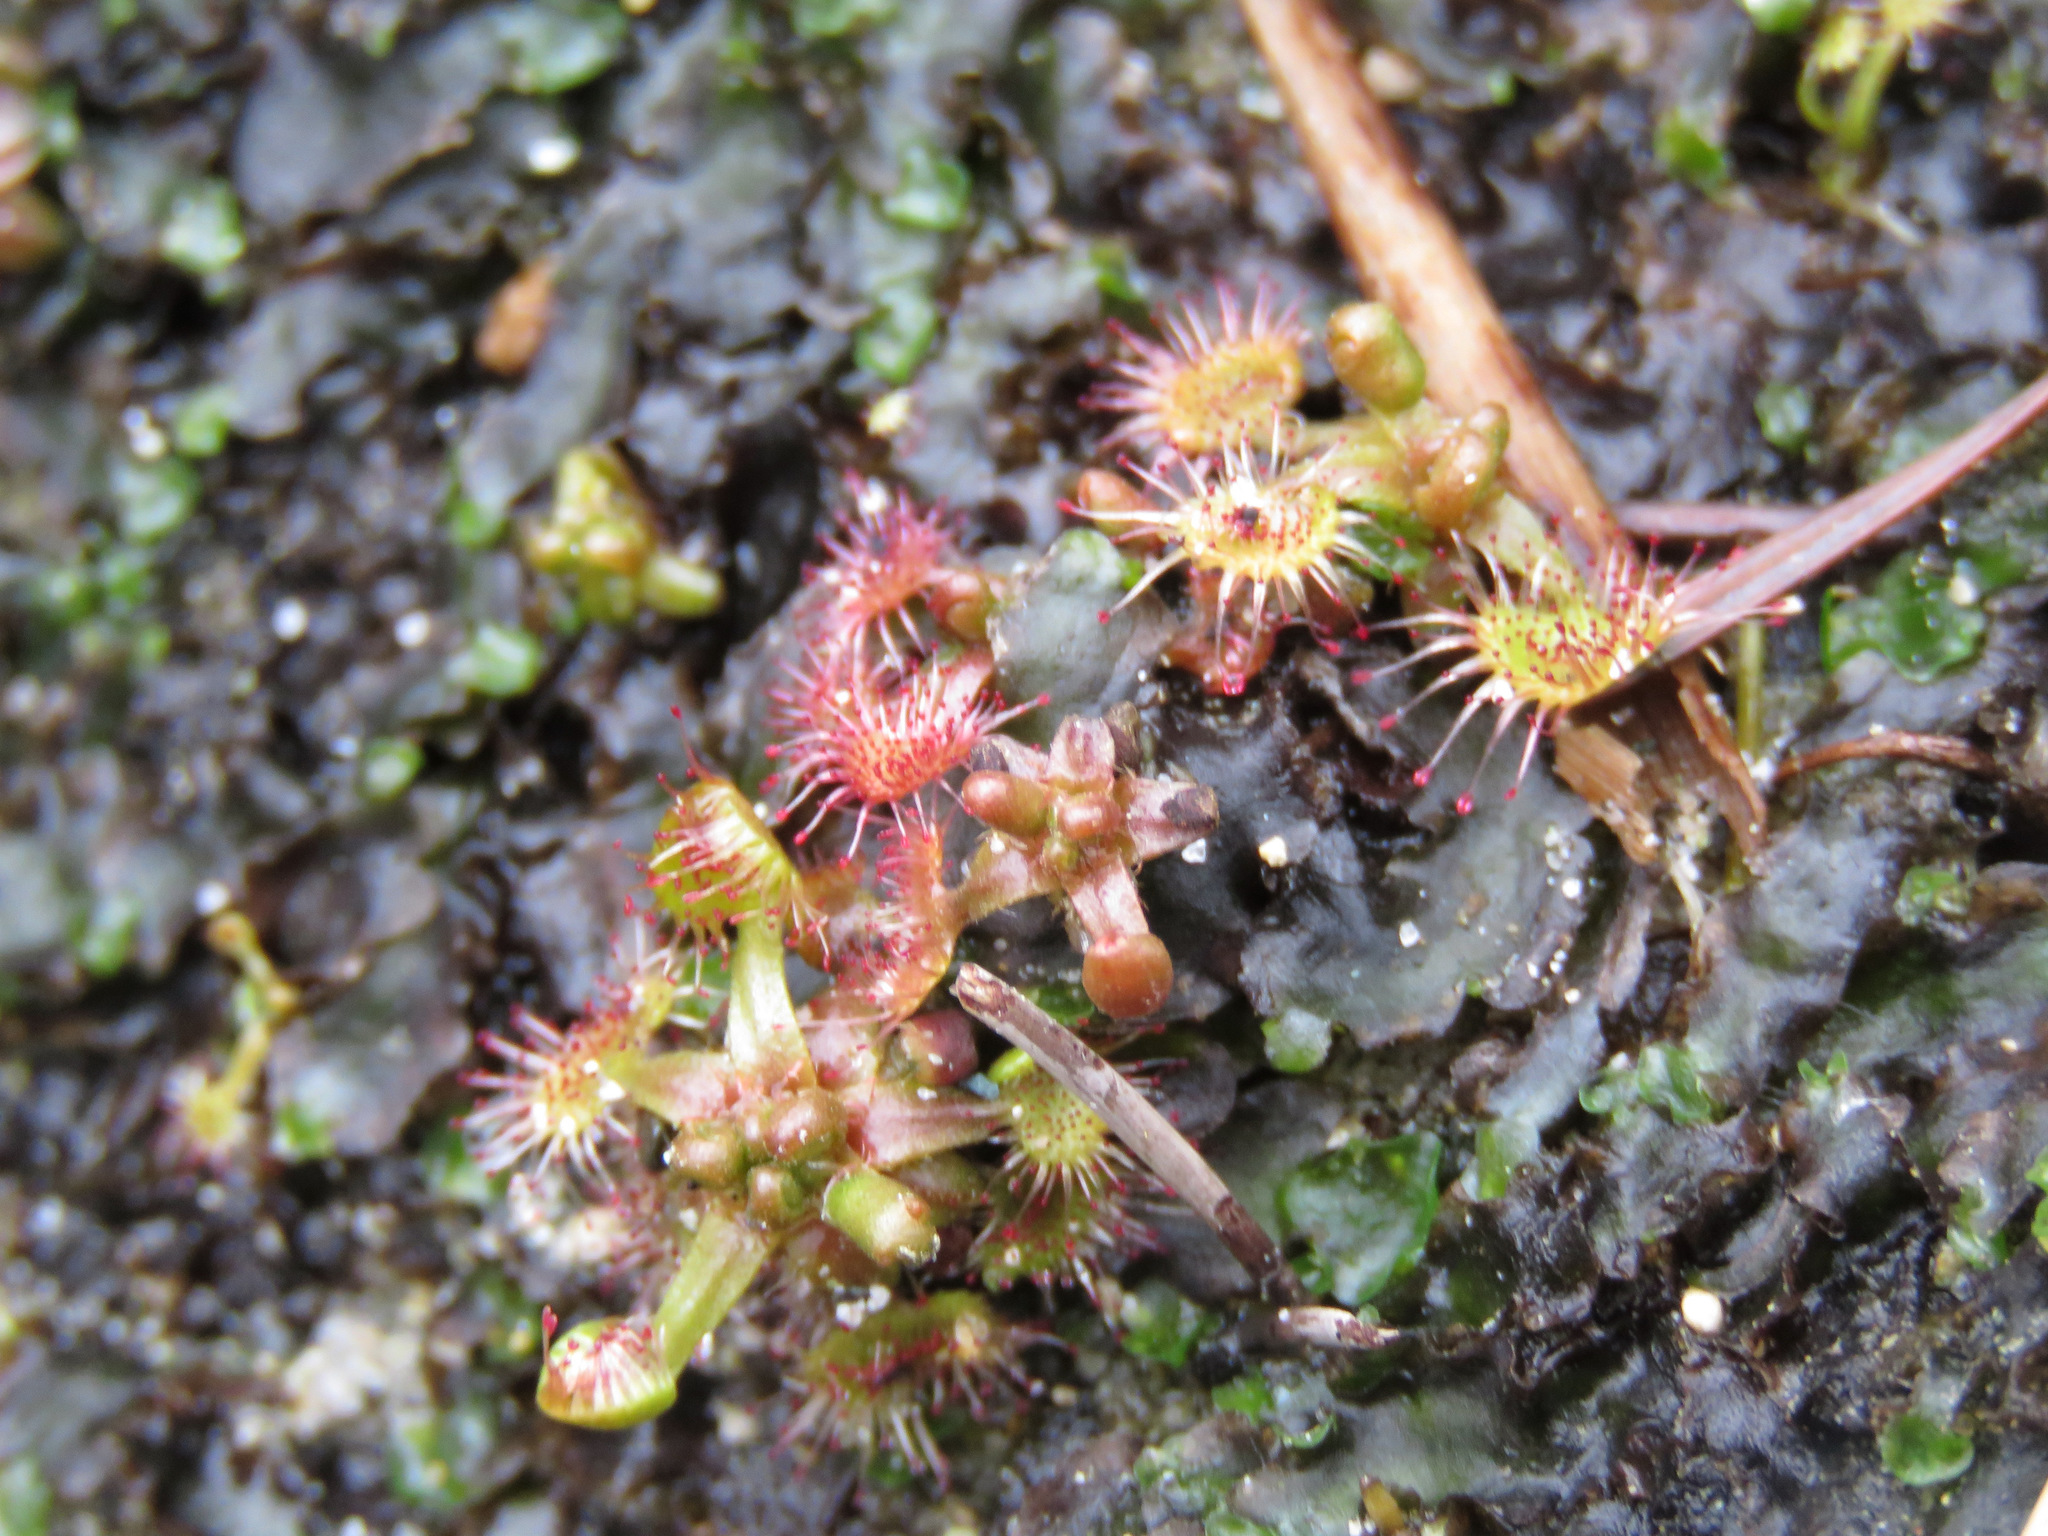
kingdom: Plantae
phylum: Tracheophyta
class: Magnoliopsida
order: Caryophyllales
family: Droseraceae
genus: Drosera
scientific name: Drosera rotundifolia
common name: Round-leaved sundew
